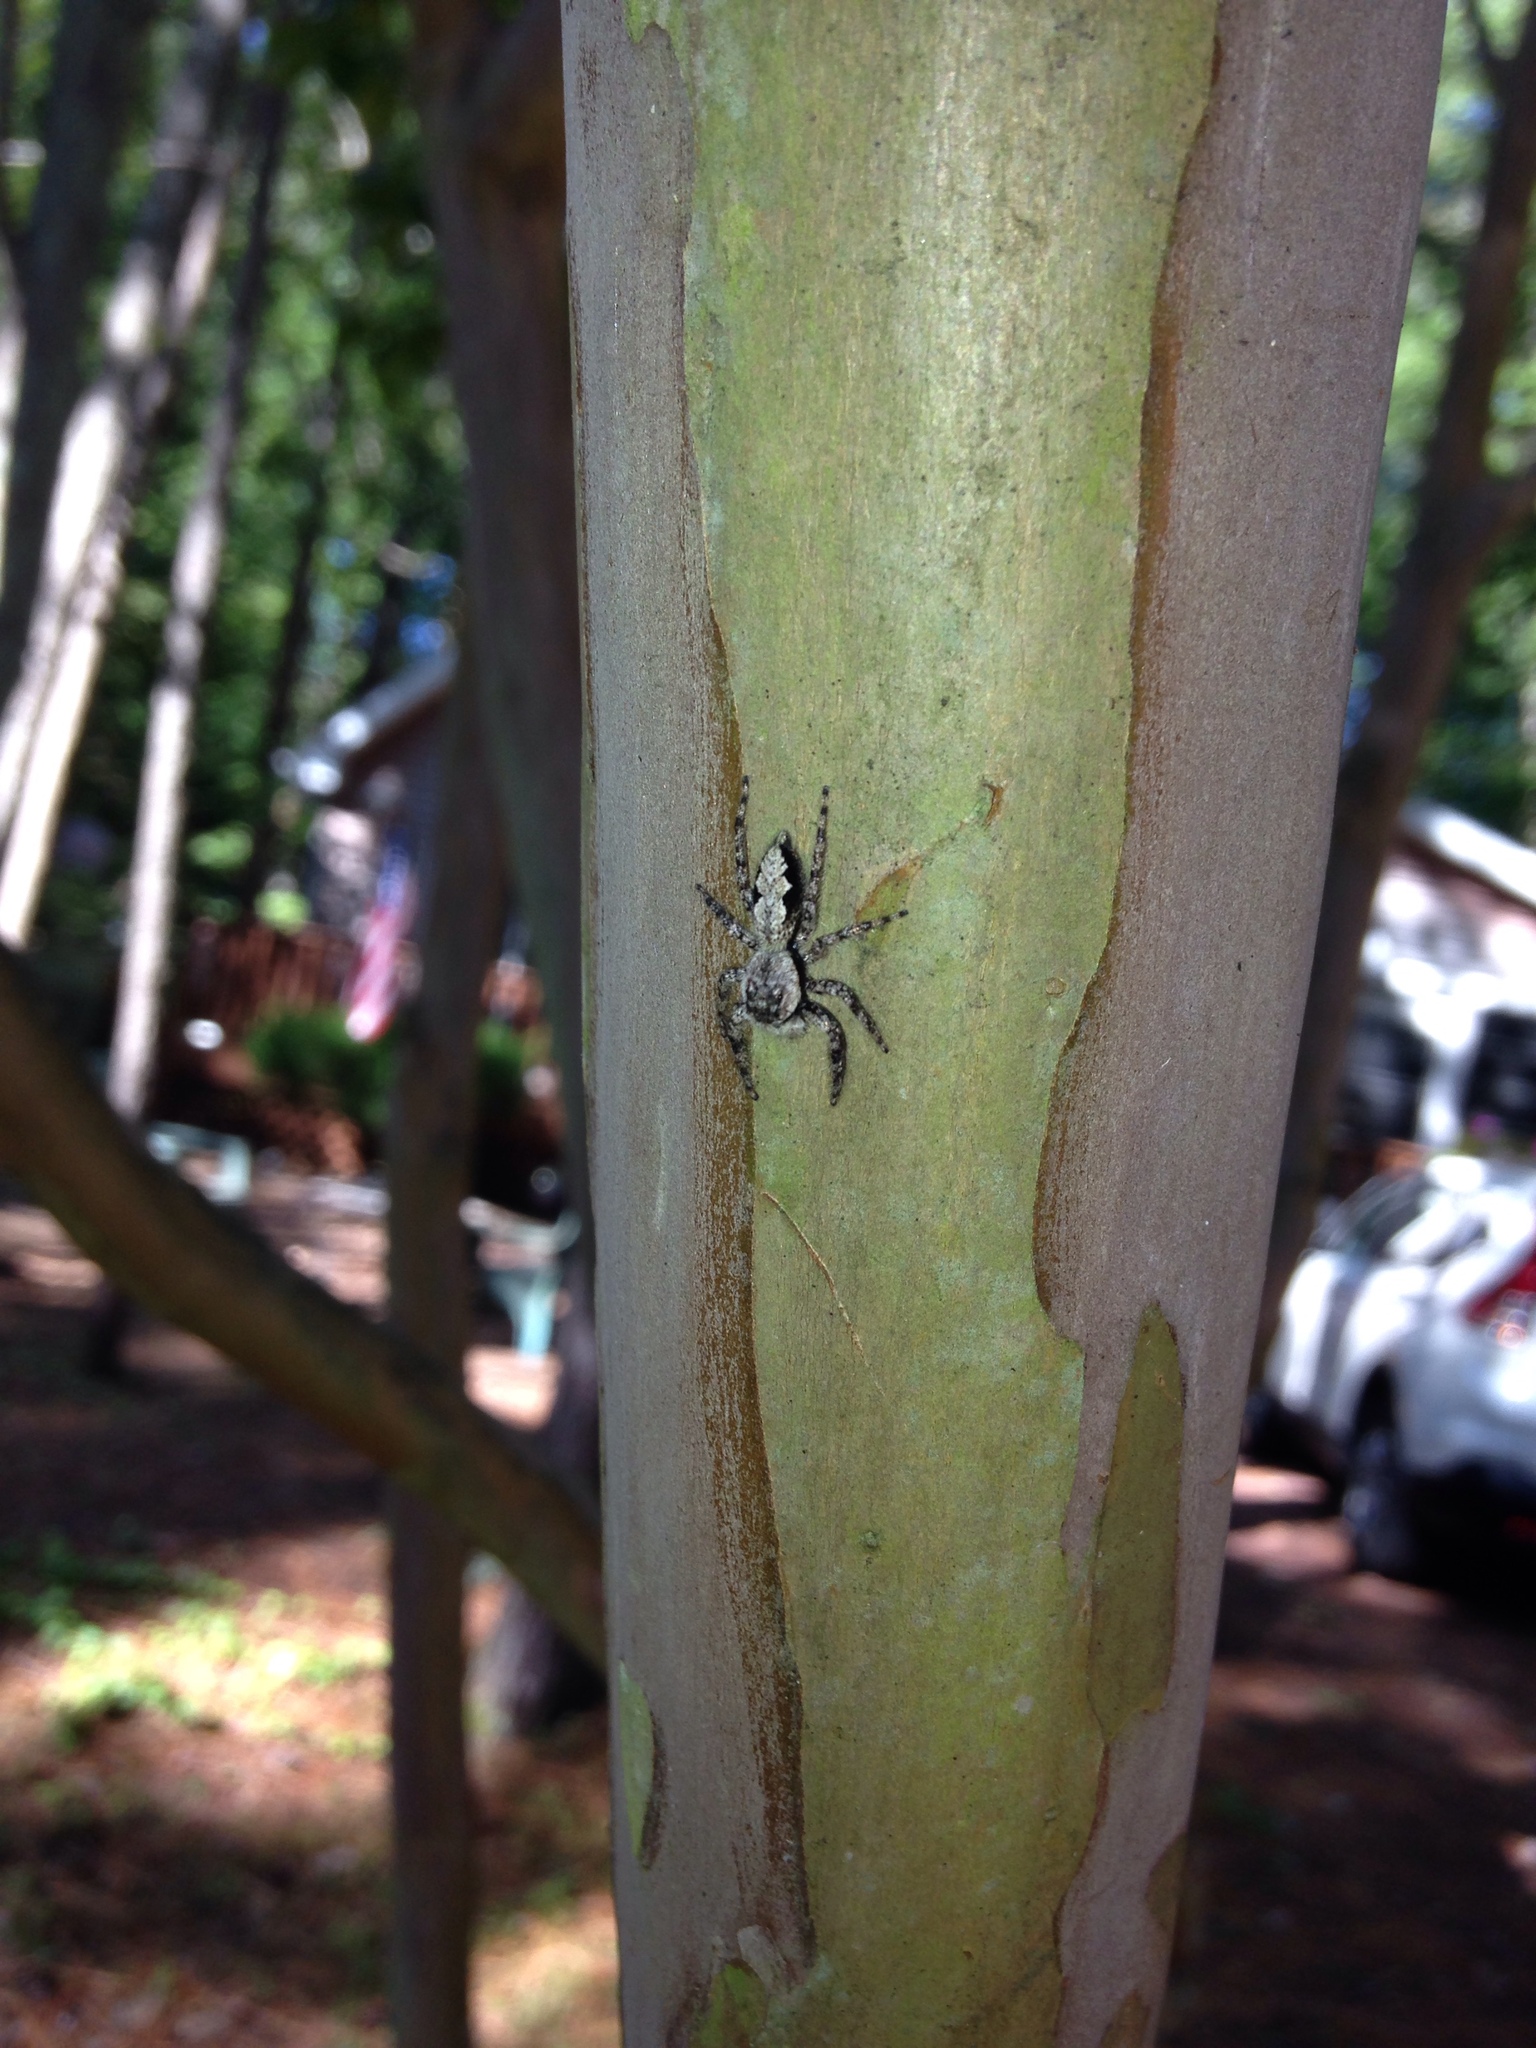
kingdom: Animalia
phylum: Arthropoda
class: Arachnida
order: Araneae
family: Salticidae
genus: Platycryptus
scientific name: Platycryptus undatus
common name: Tan jumping spider
